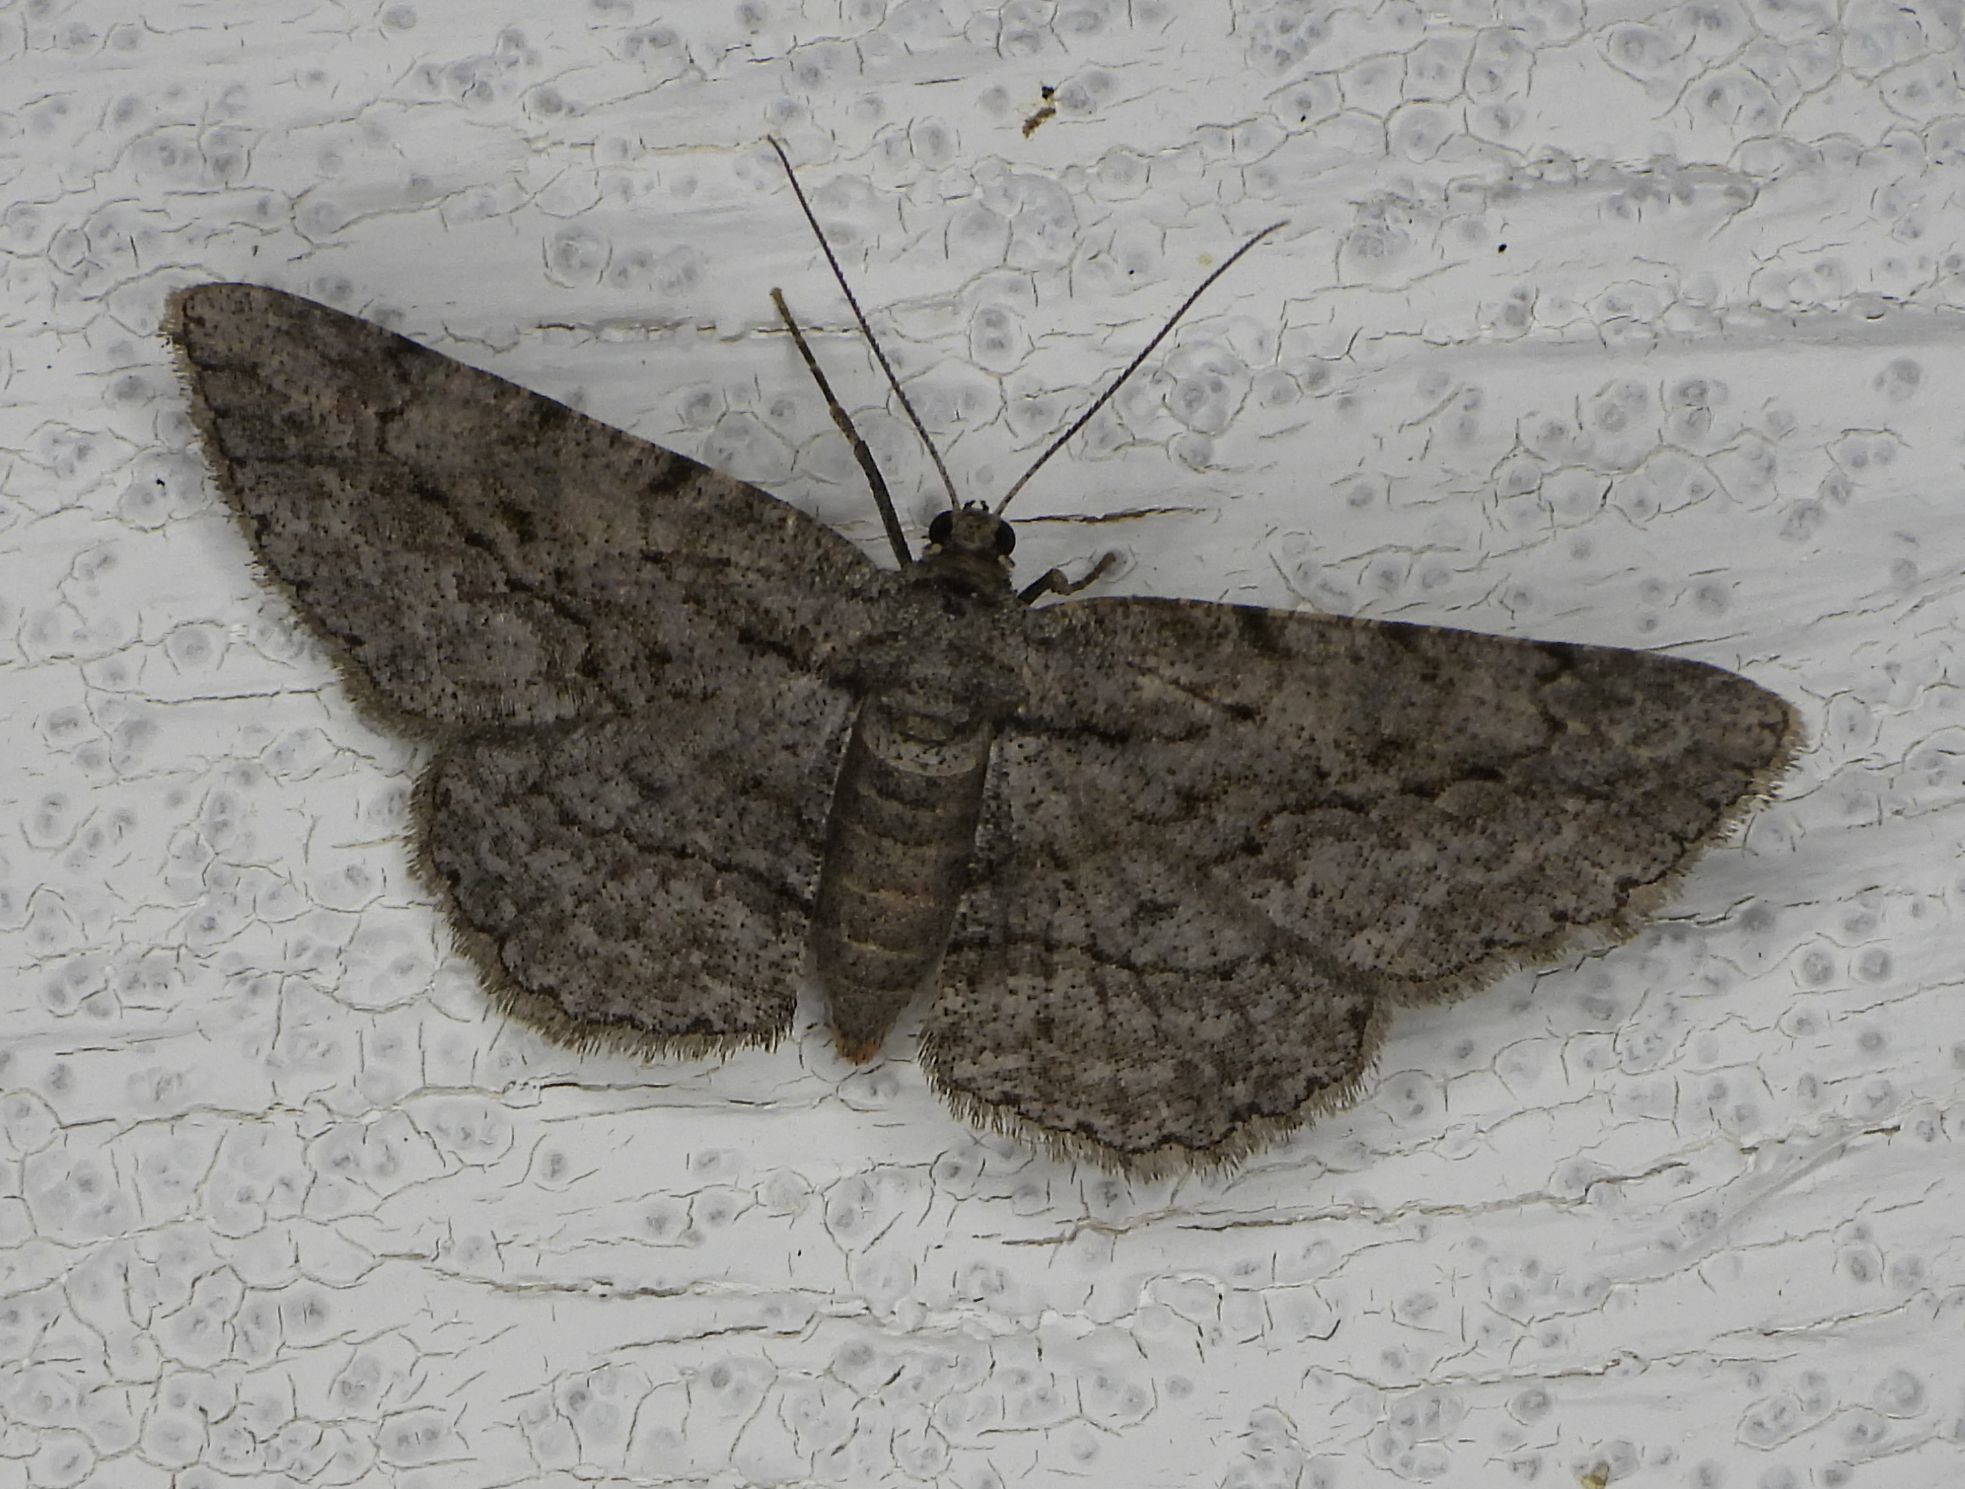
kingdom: Animalia
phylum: Arthropoda
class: Insecta
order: Lepidoptera
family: Geometridae
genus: Anavitrinella
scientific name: Anavitrinella pampinaria
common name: Common gray
